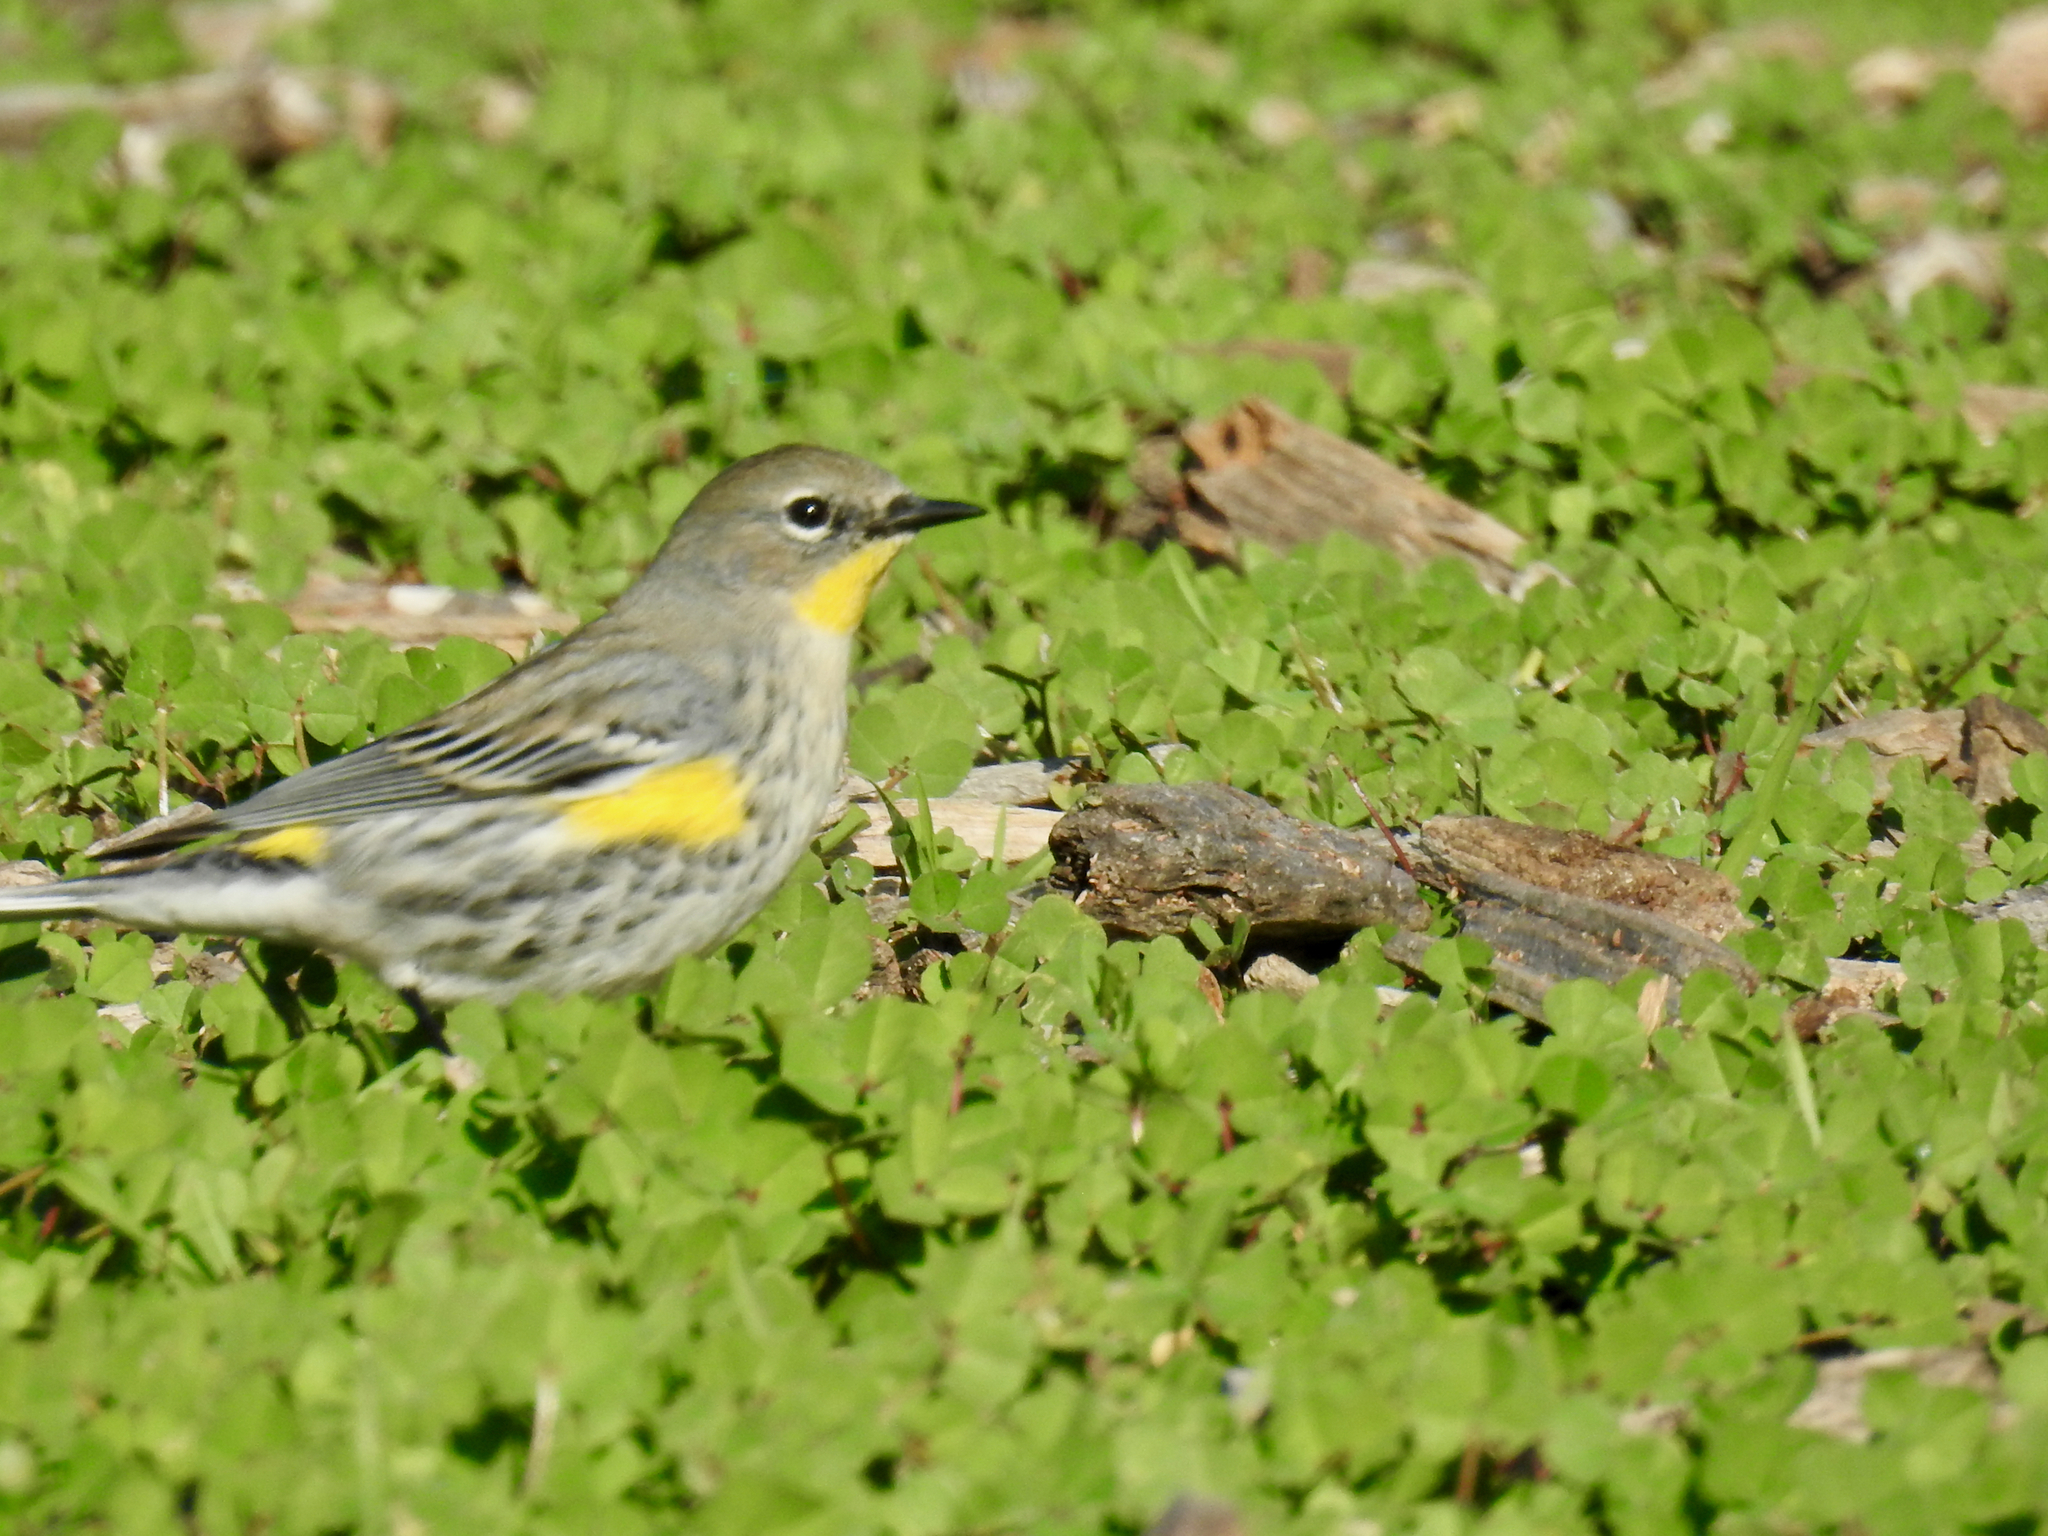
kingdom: Animalia
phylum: Chordata
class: Aves
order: Passeriformes
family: Parulidae
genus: Setophaga
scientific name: Setophaga coronata
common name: Myrtle warbler
